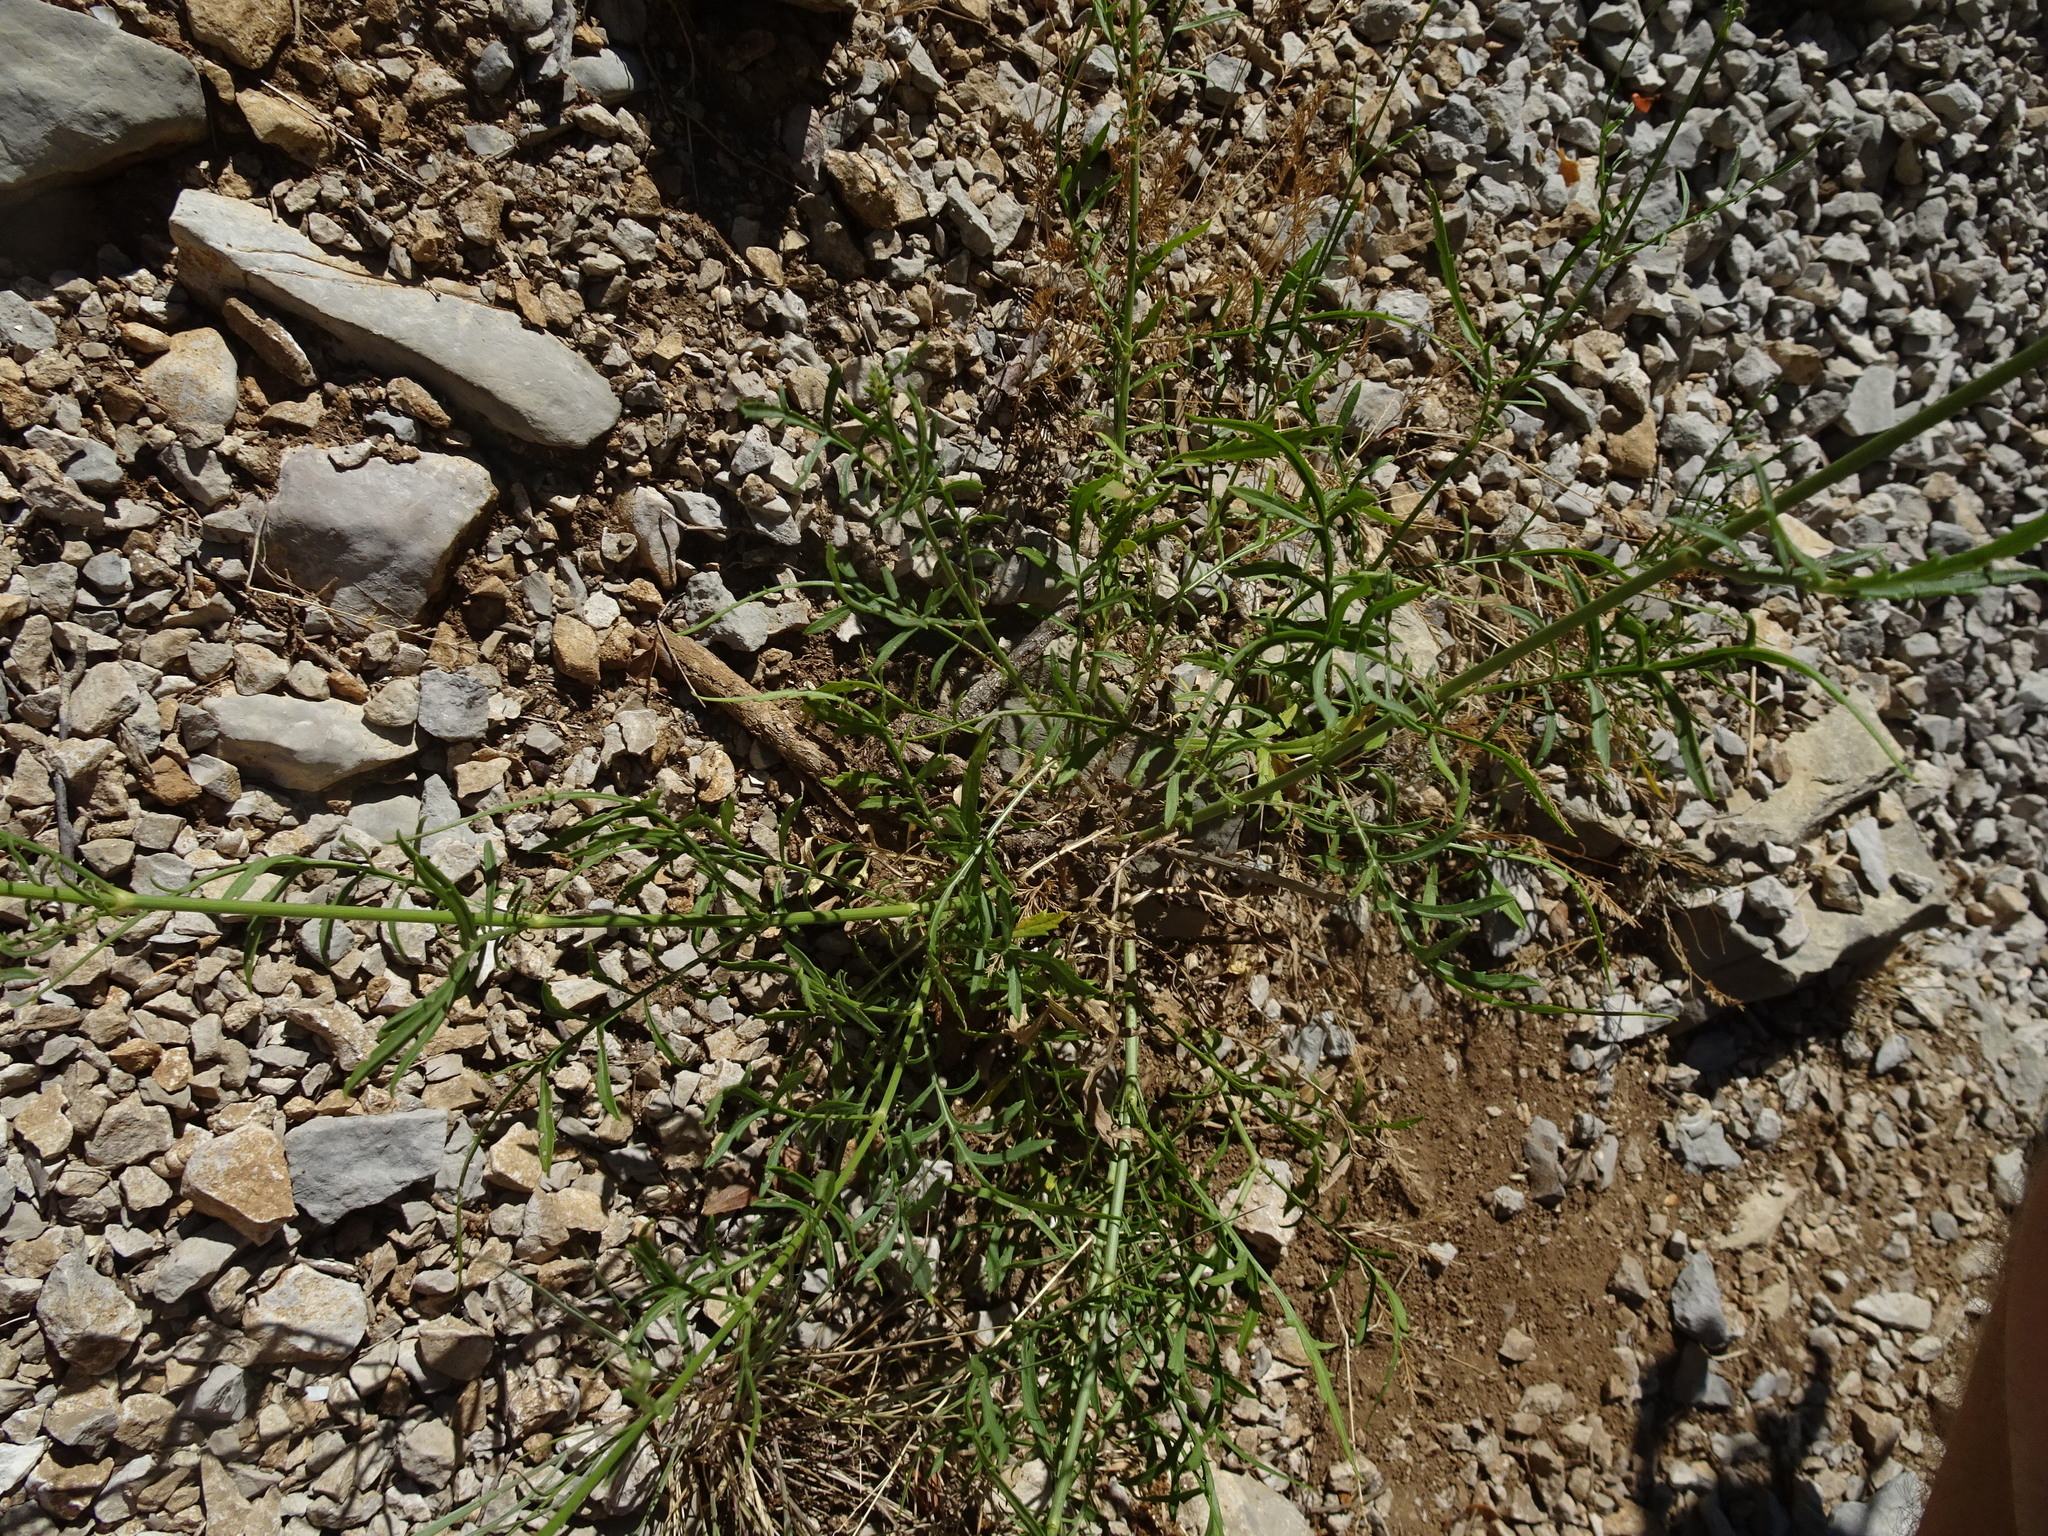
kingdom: Plantae
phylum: Tracheophyta
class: Magnoliopsida
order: Dipsacales
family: Caprifoliaceae
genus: Cephalaria
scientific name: Cephalaria leucantha
